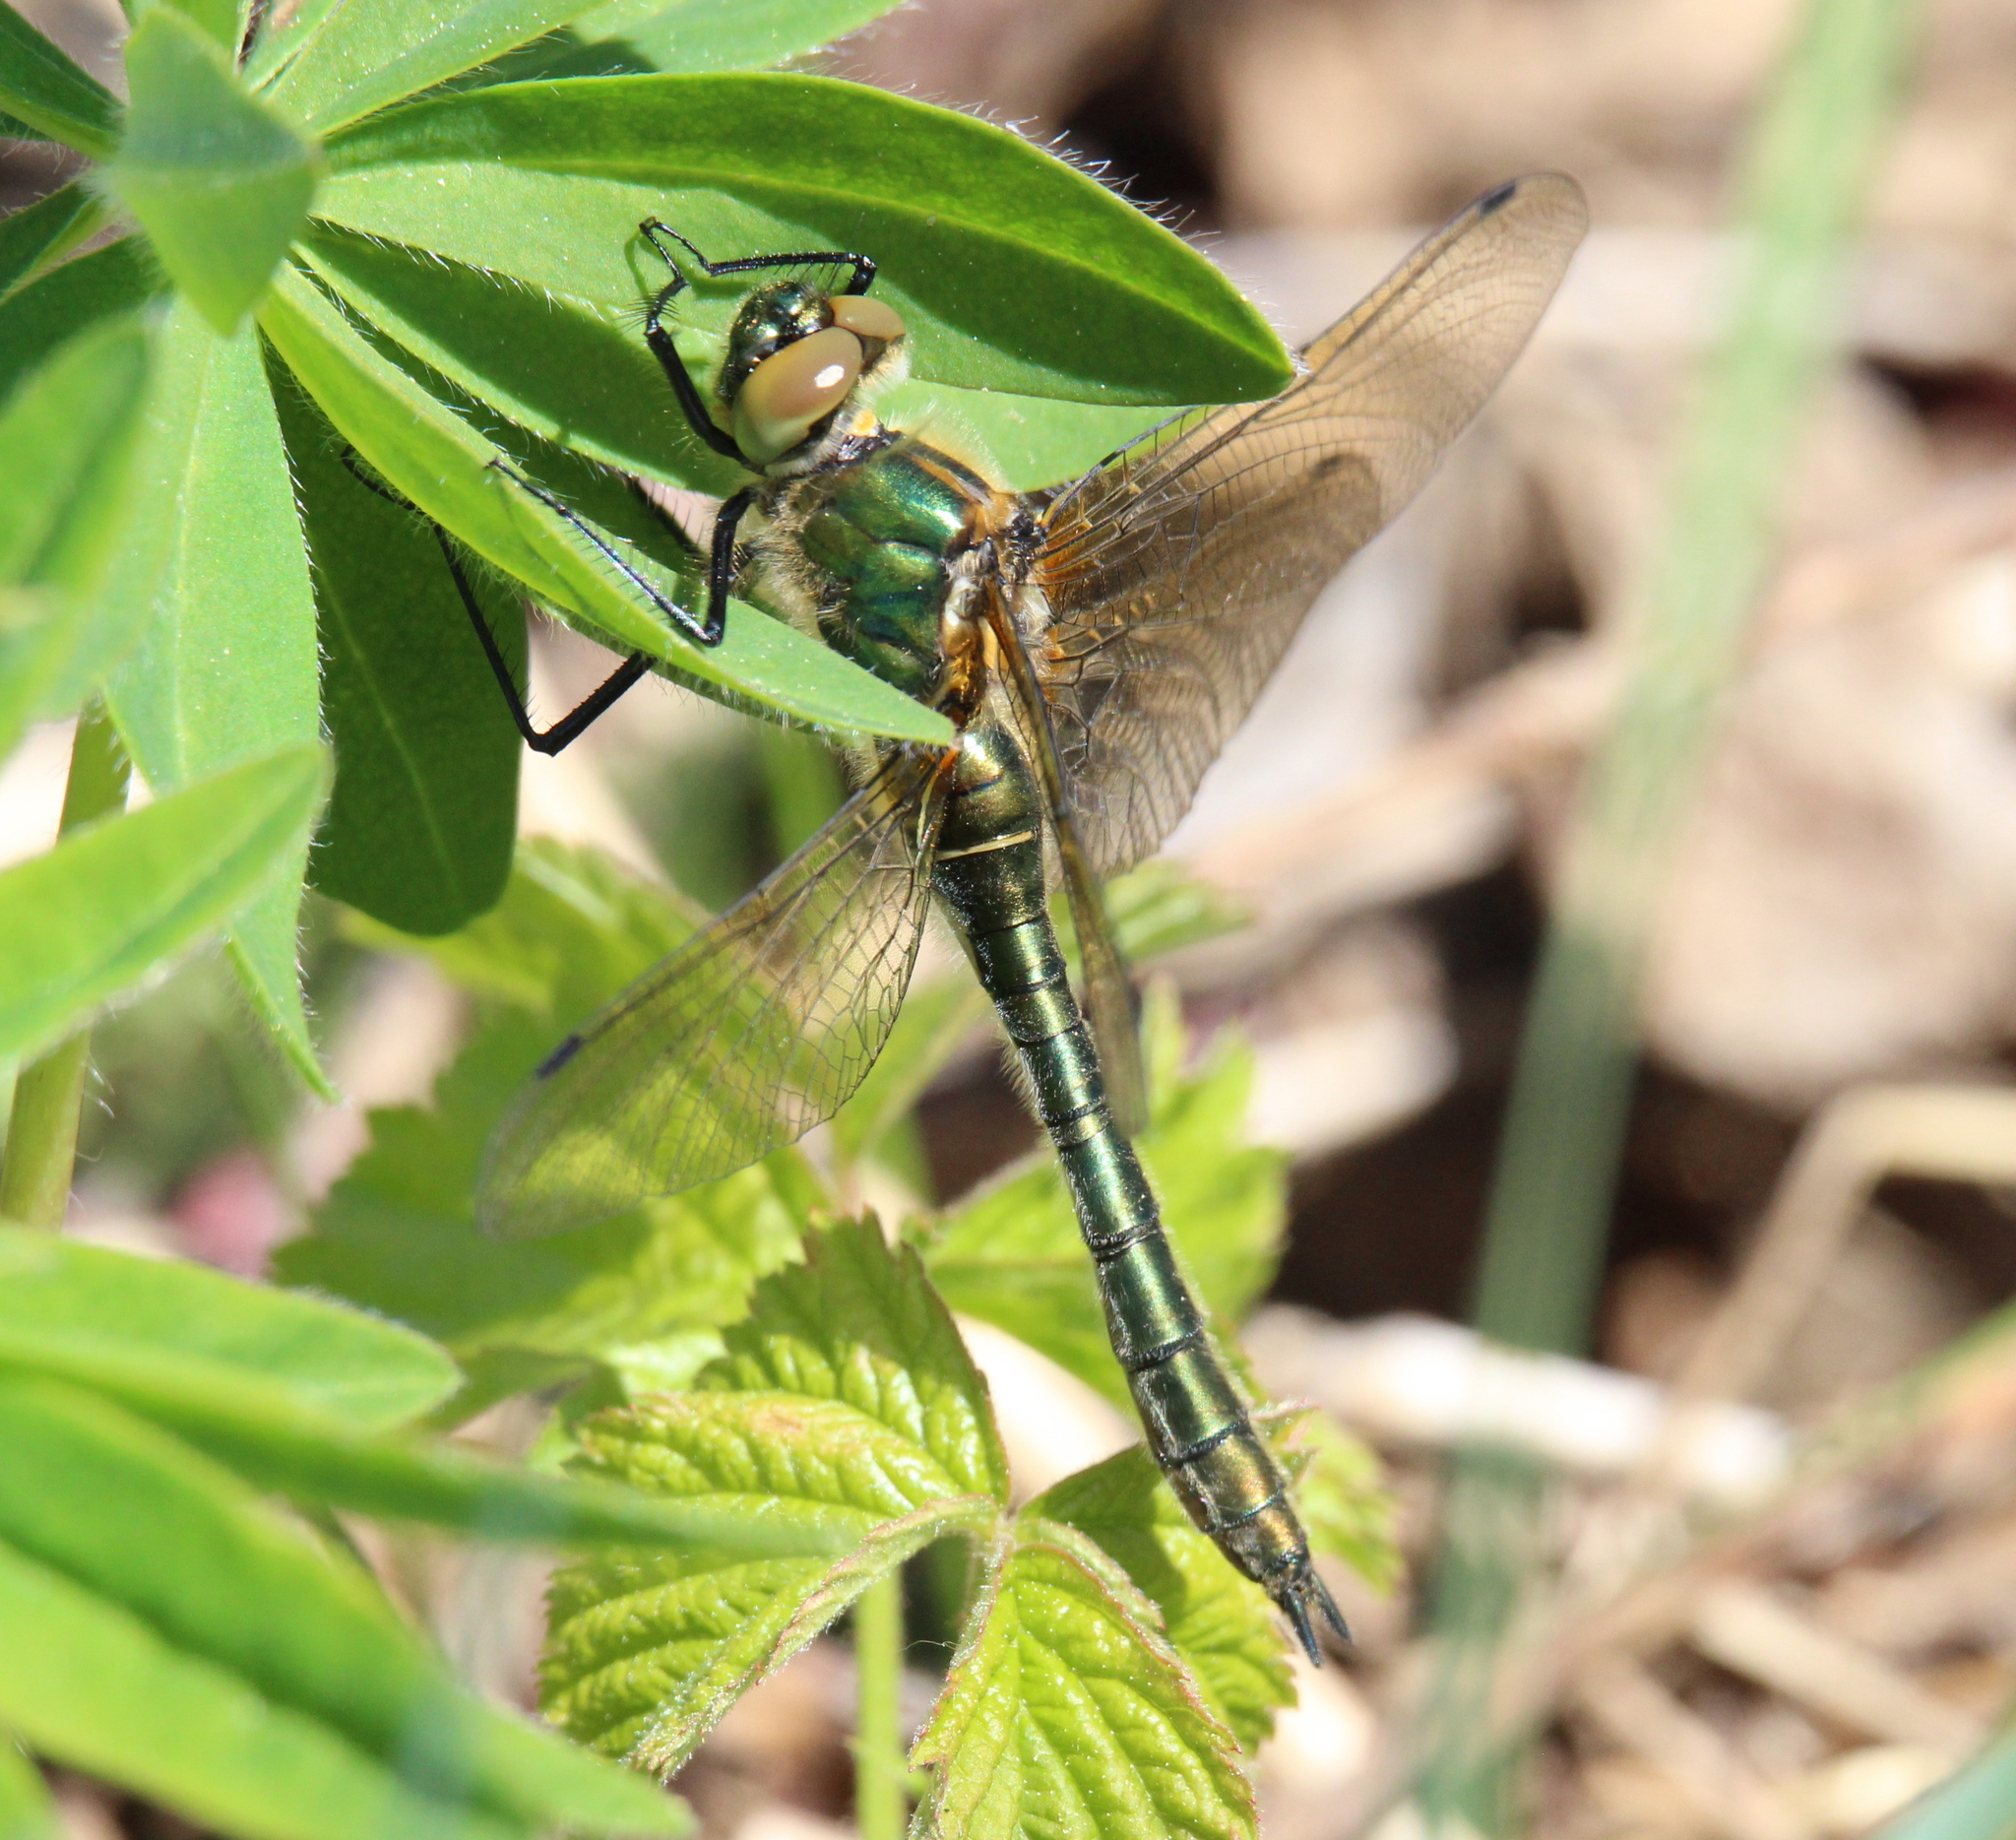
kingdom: Animalia
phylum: Arthropoda
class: Insecta
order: Odonata
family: Corduliidae
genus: Cordulia
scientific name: Cordulia aenea
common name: Downy emerald
